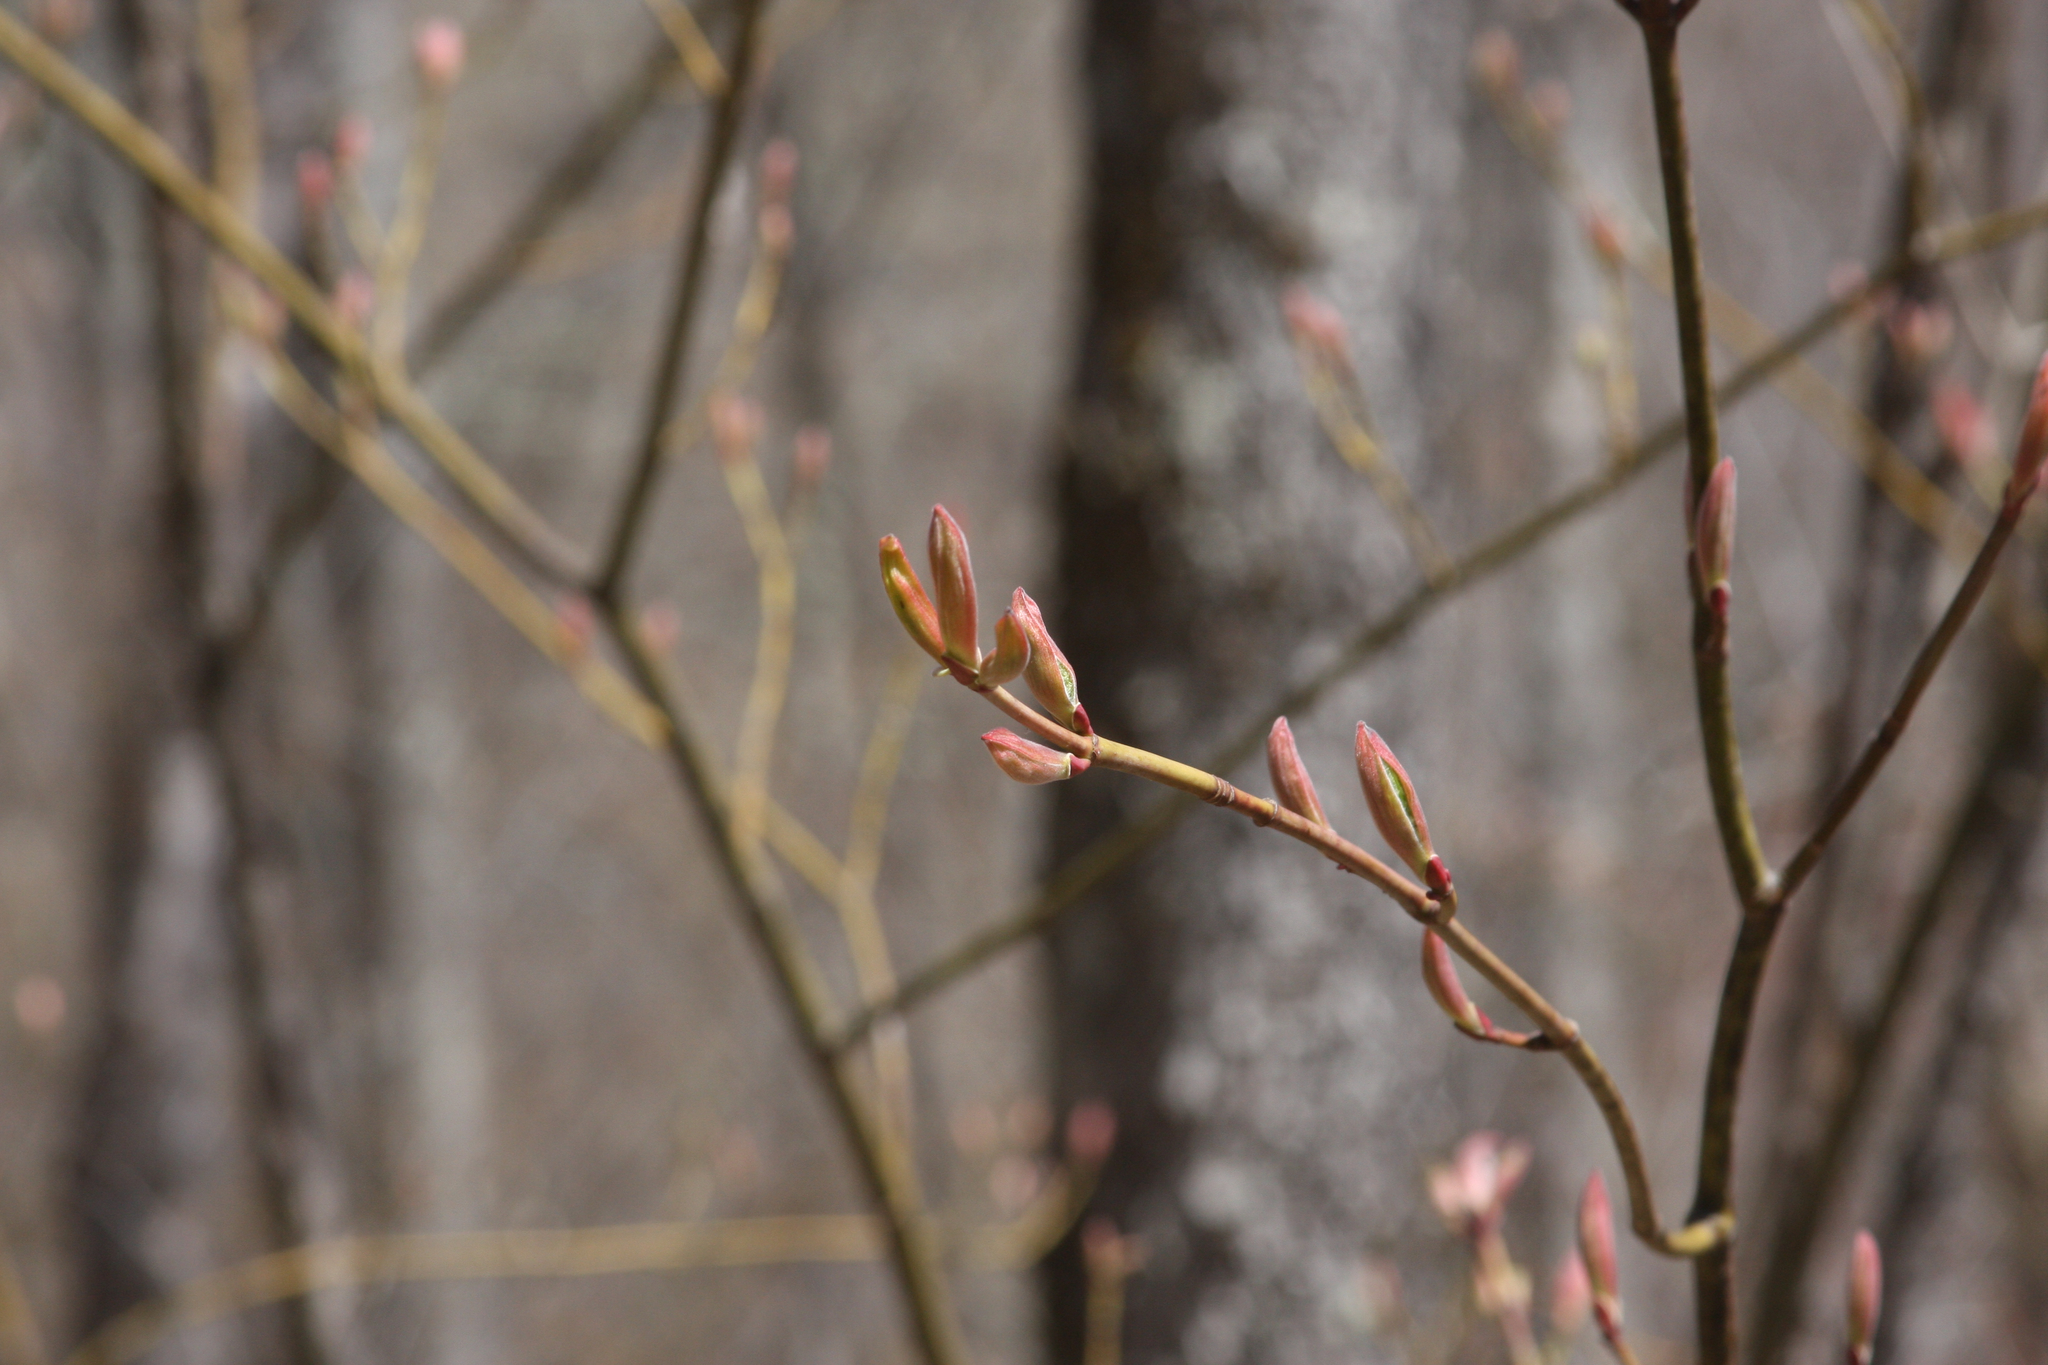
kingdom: Plantae
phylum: Tracheophyta
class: Magnoliopsida
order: Sapindales
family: Sapindaceae
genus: Acer
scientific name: Acer pensylvanicum
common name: Moosewood
